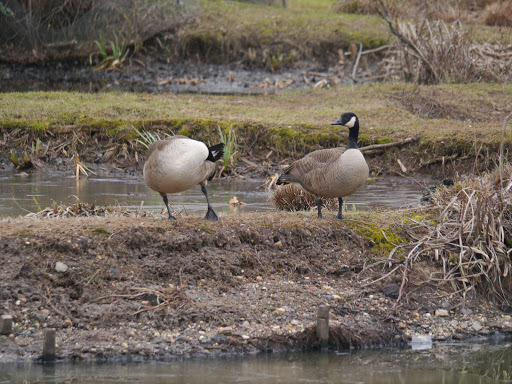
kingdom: Animalia
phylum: Chordata
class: Aves
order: Anseriformes
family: Anatidae
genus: Branta
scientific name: Branta canadensis
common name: Canada goose
